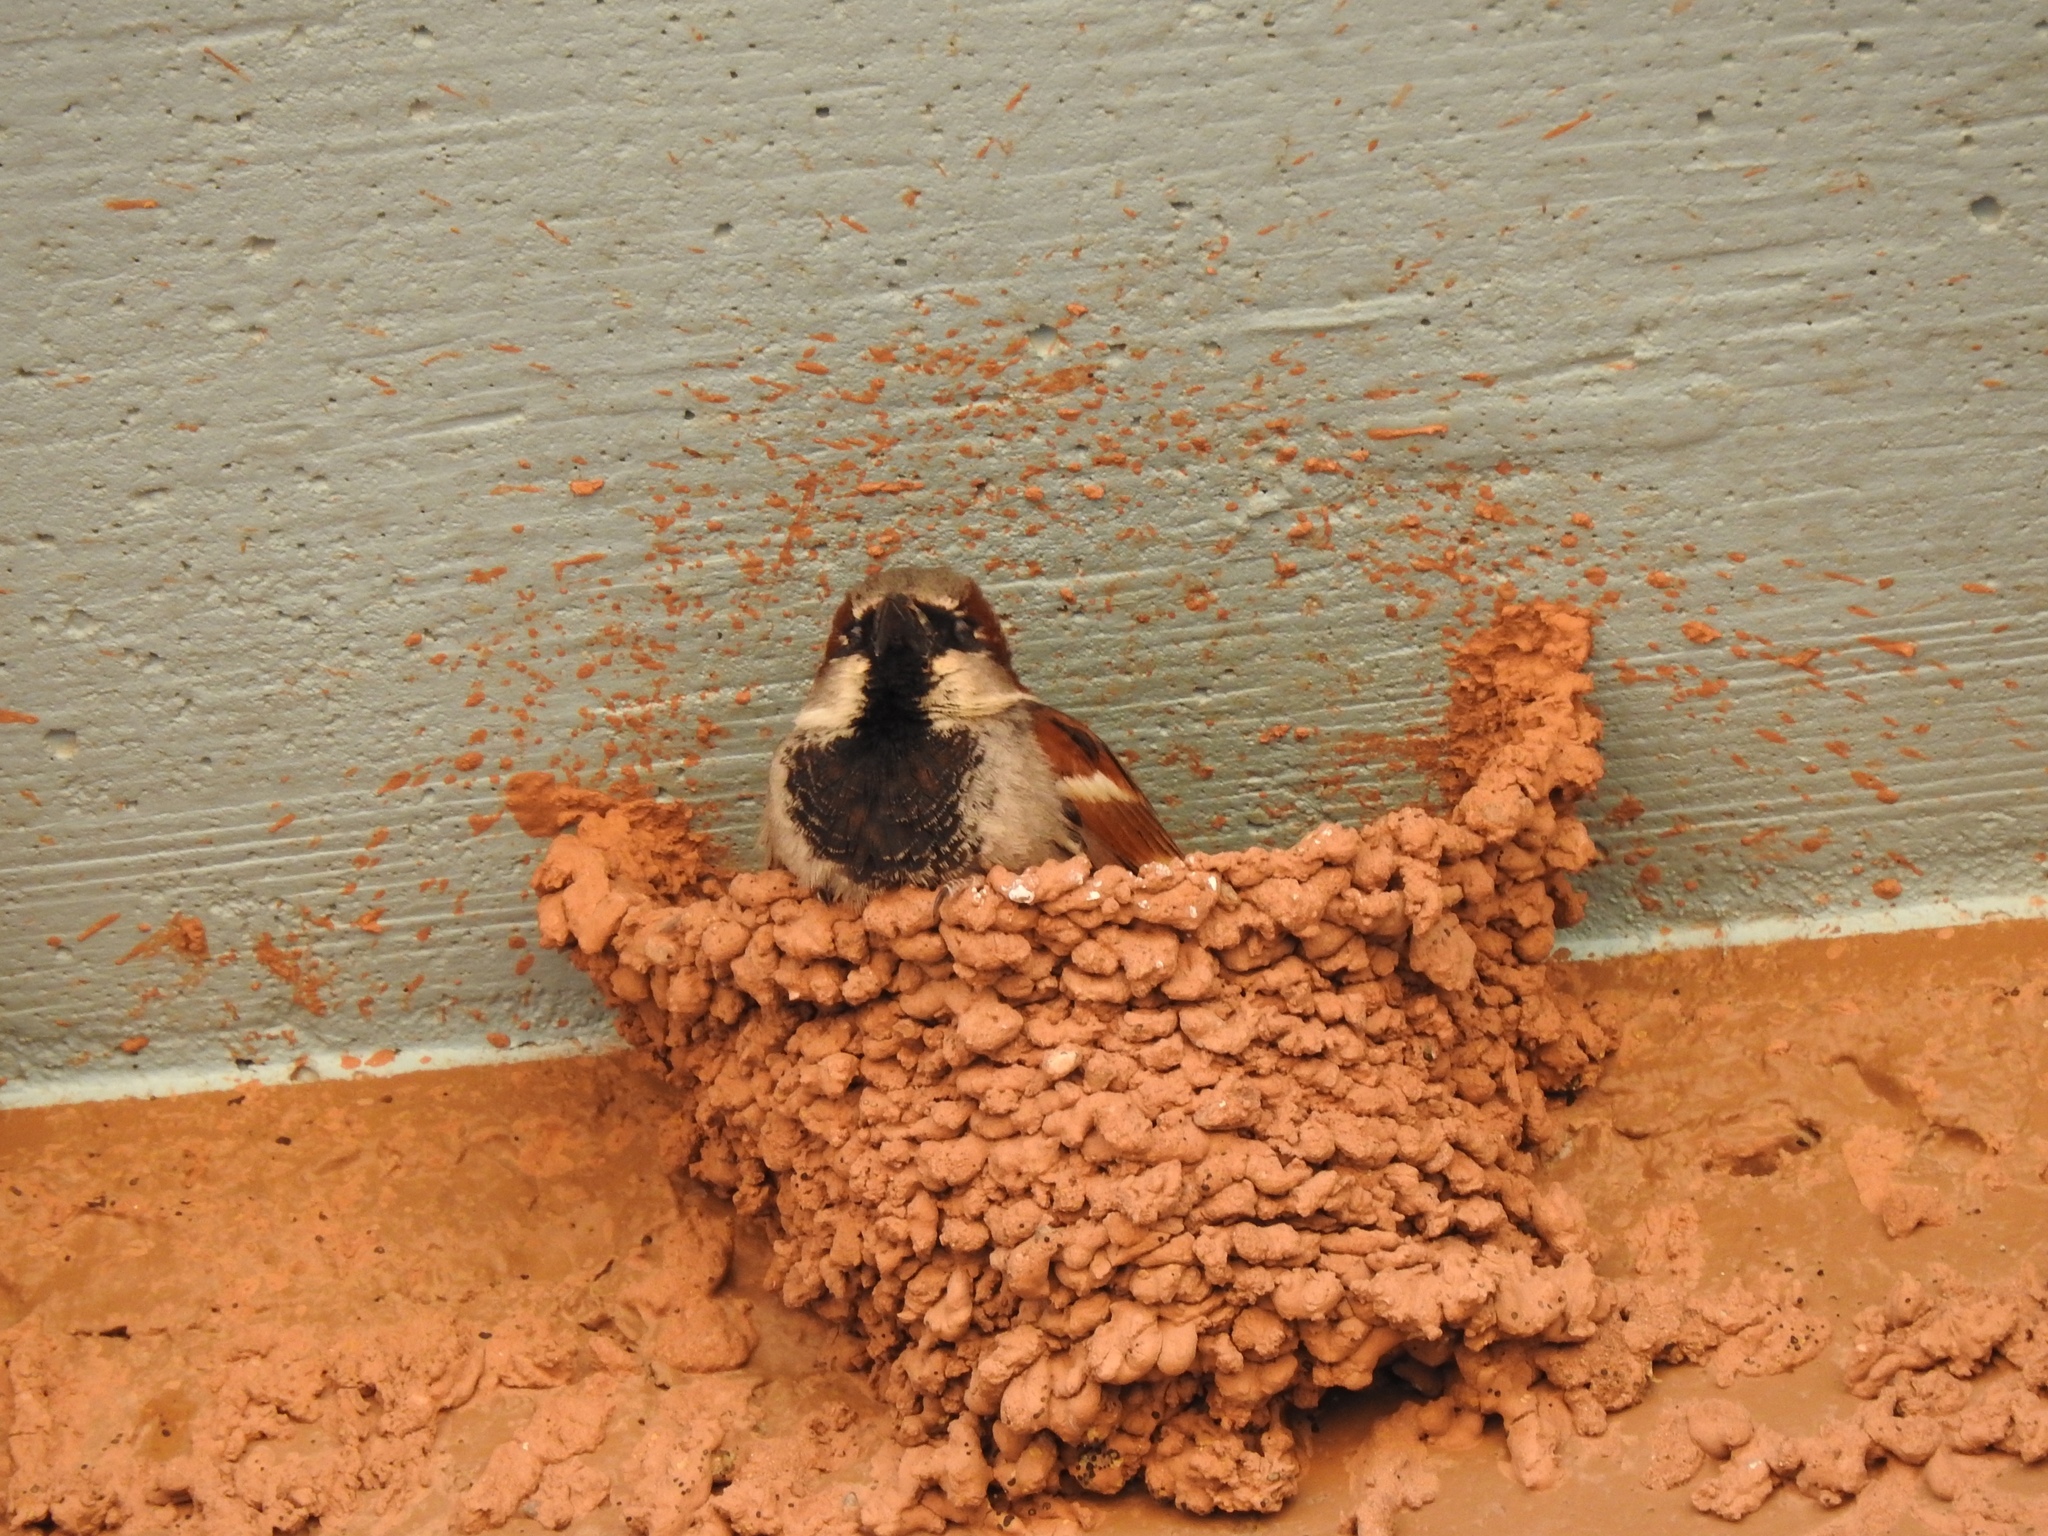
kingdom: Animalia
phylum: Chordata
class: Aves
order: Passeriformes
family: Passeridae
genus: Passer
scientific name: Passer domesticus
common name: House sparrow
